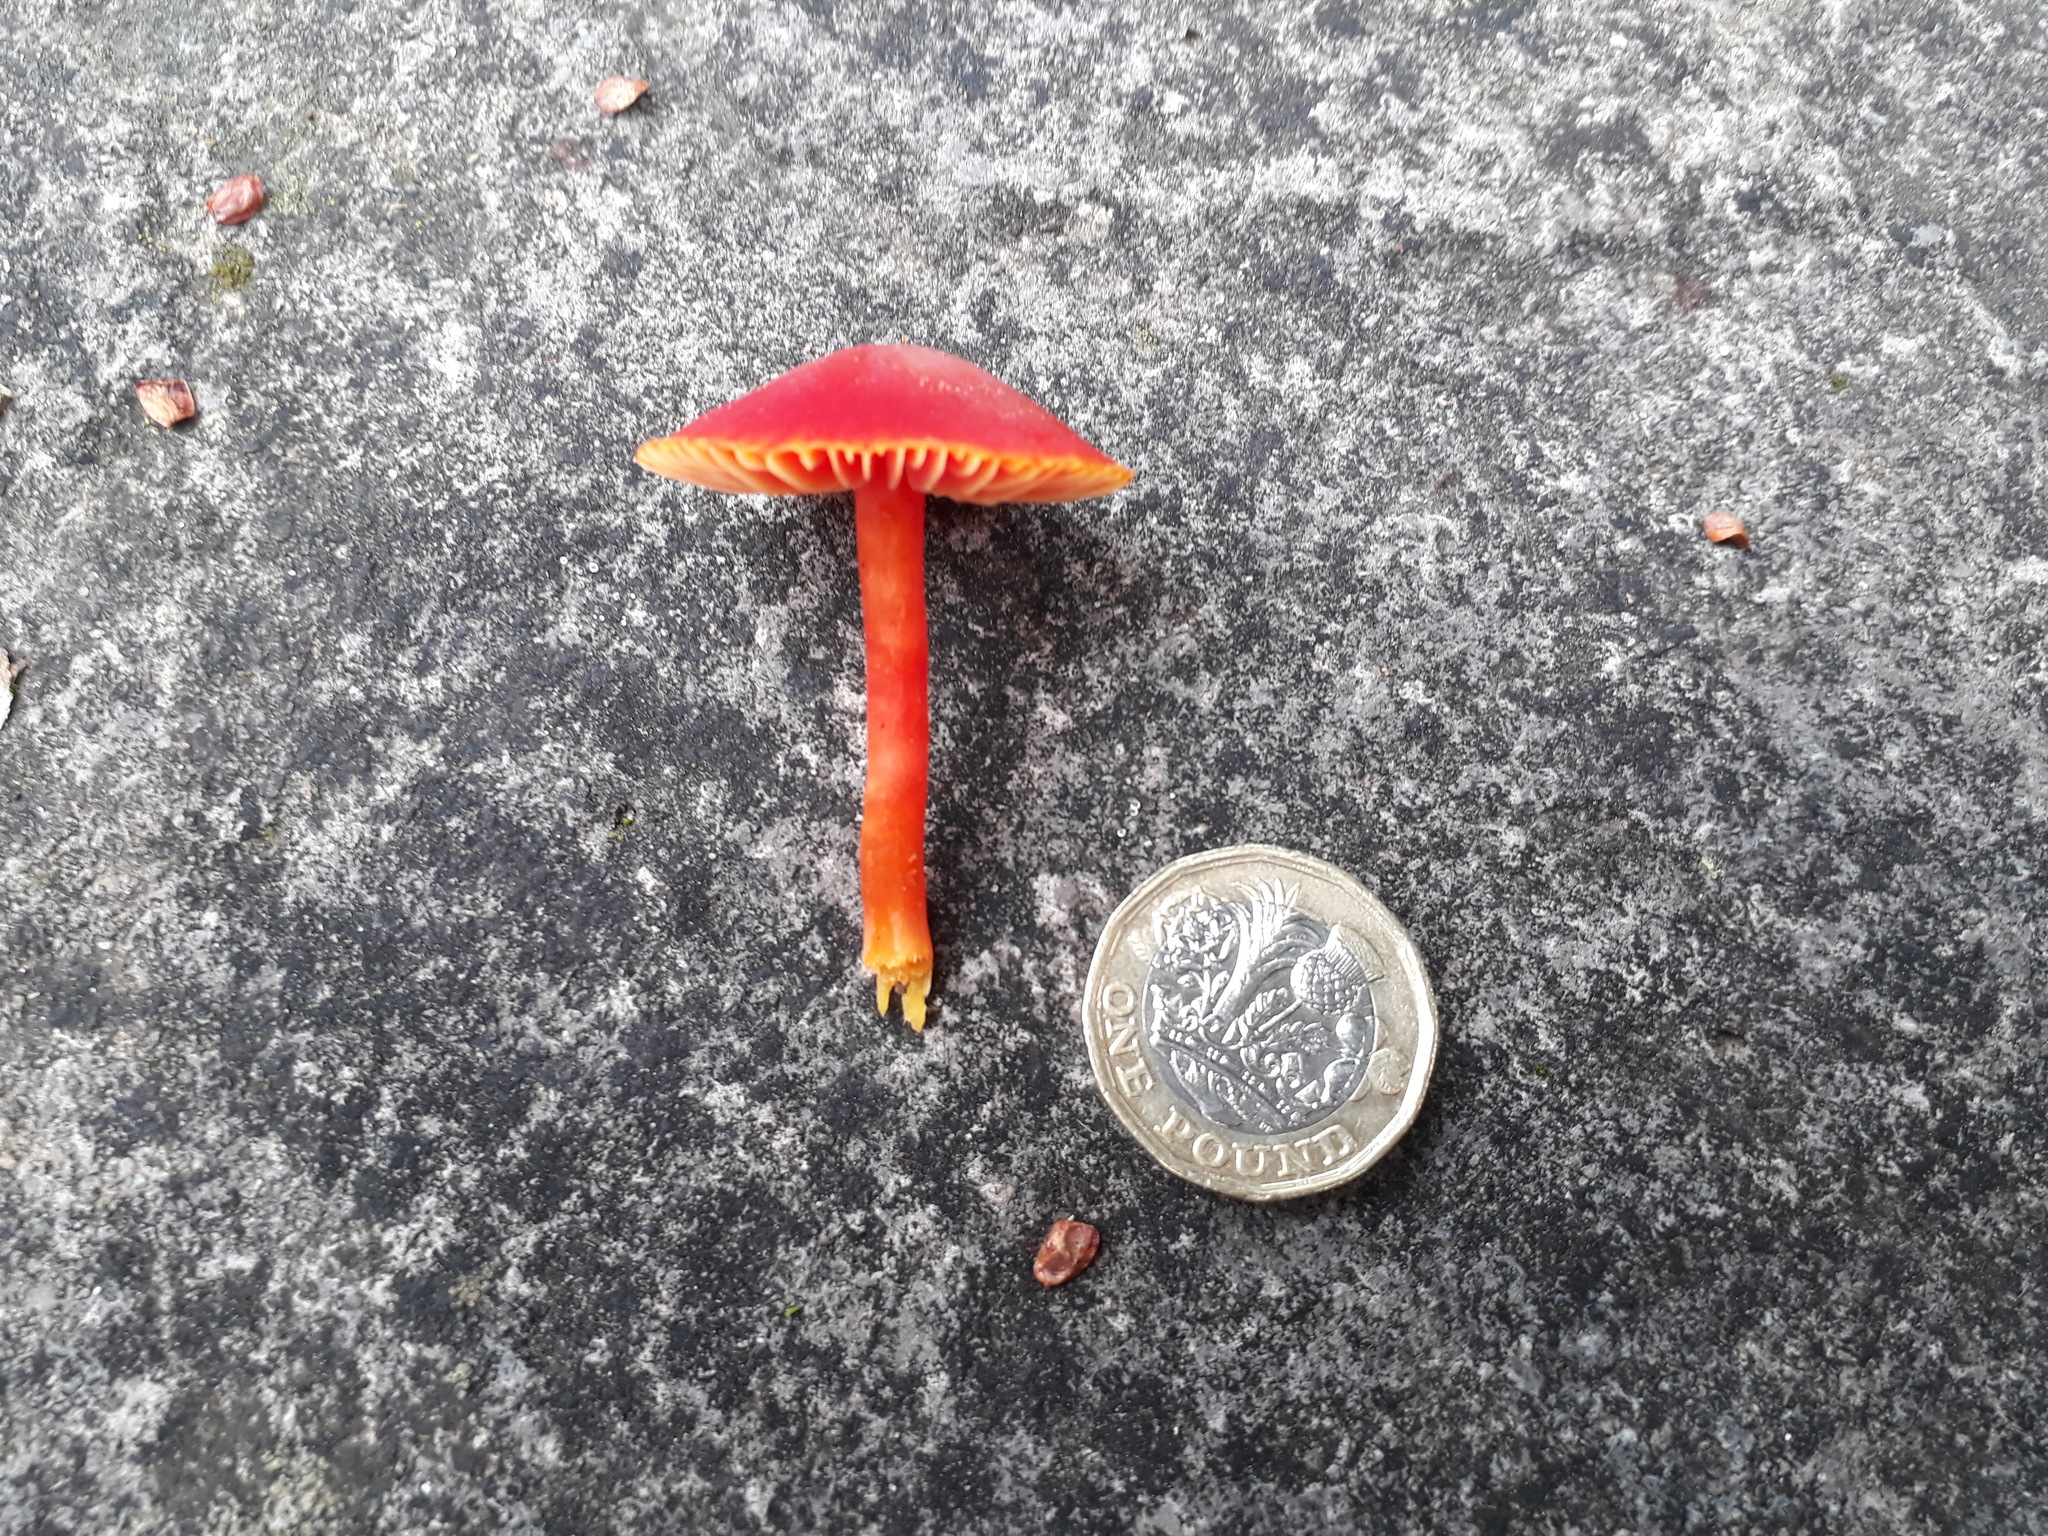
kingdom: Fungi
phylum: Basidiomycota
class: Agaricomycetes
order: Agaricales
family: Hygrophoraceae
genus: Hygrocybe
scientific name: Hygrocybe coccinea
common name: Scarlet hood
